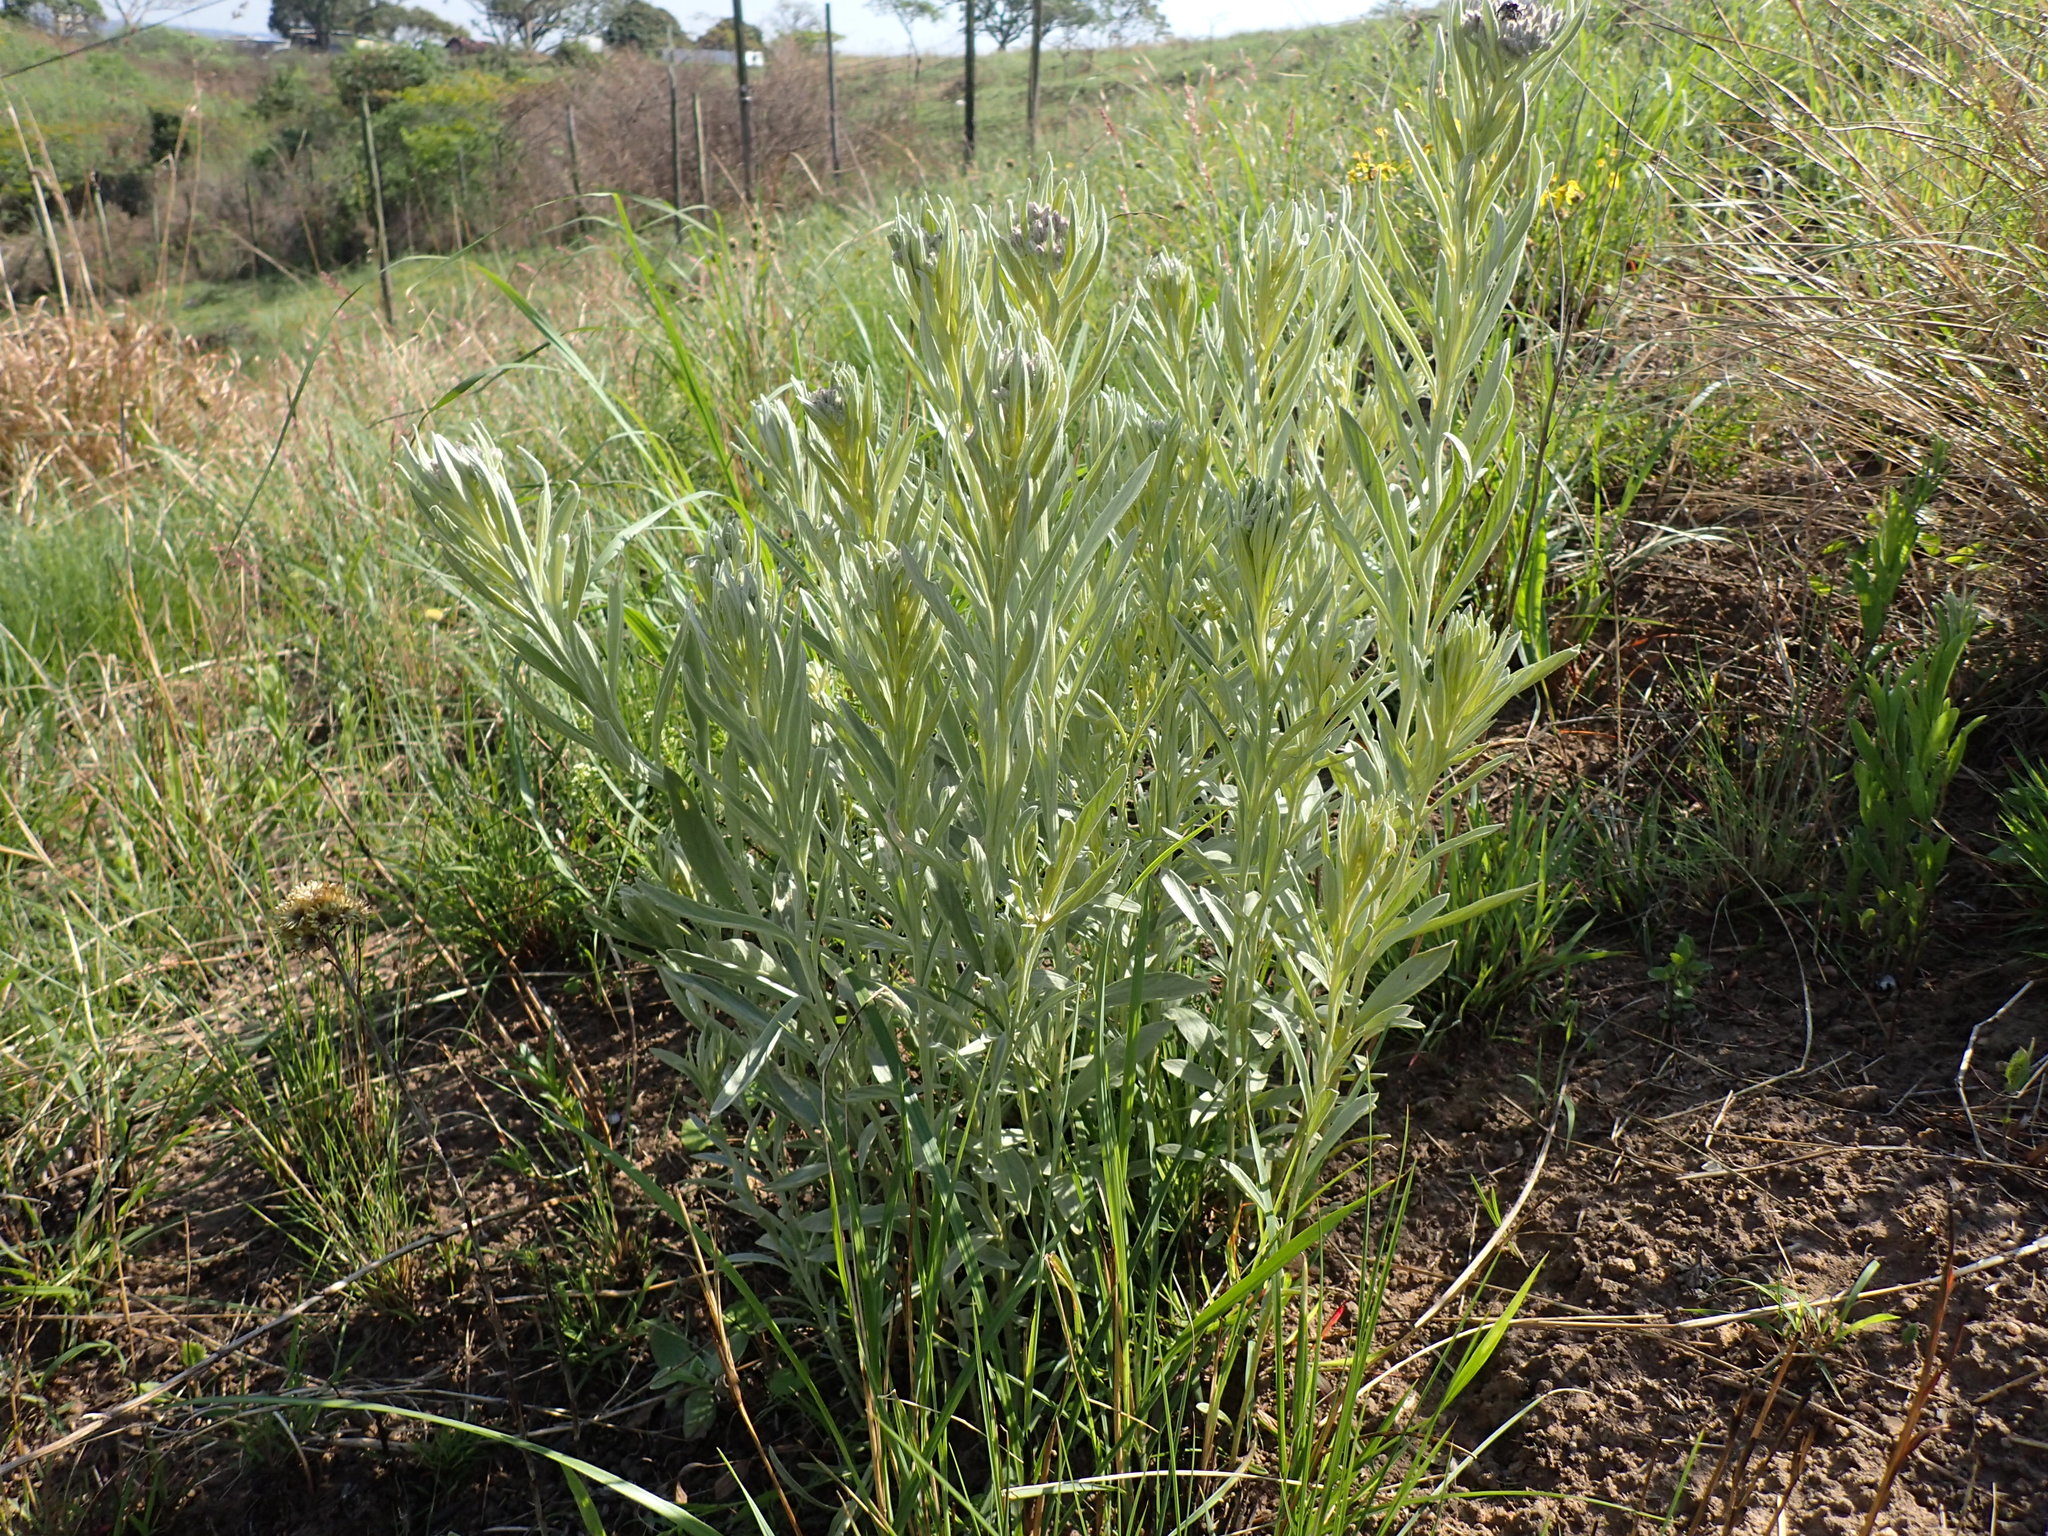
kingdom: Plantae
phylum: Tracheophyta
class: Magnoliopsida
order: Asterales
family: Asteraceae
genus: Hilliardiella
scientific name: Hilliardiella aristata
